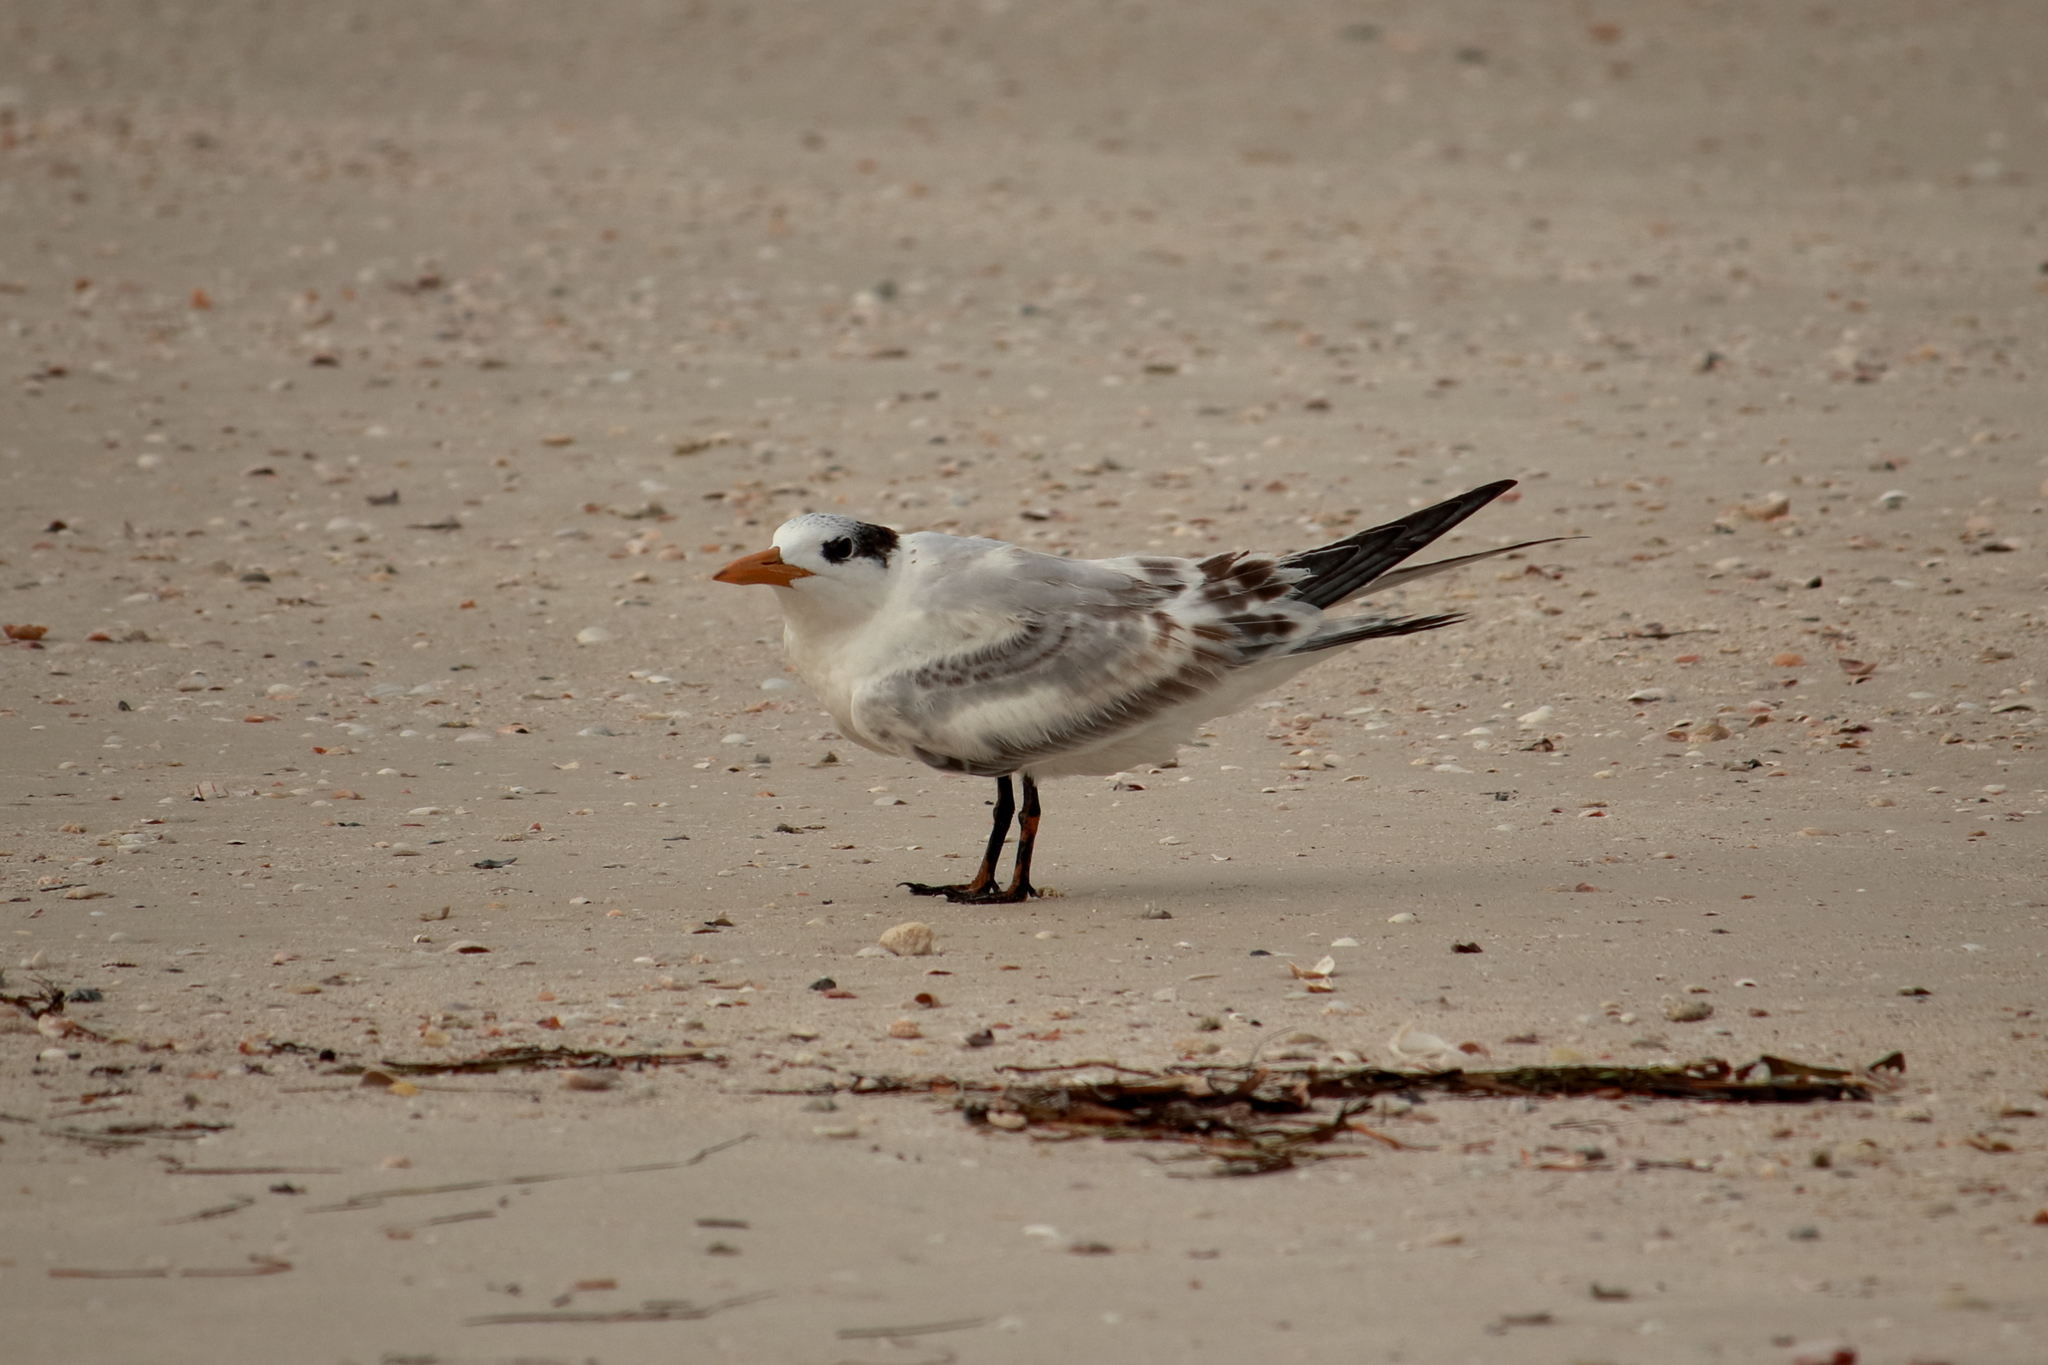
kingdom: Animalia
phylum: Chordata
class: Aves
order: Charadriiformes
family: Laridae
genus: Thalasseus
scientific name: Thalasseus maximus
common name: Royal tern
